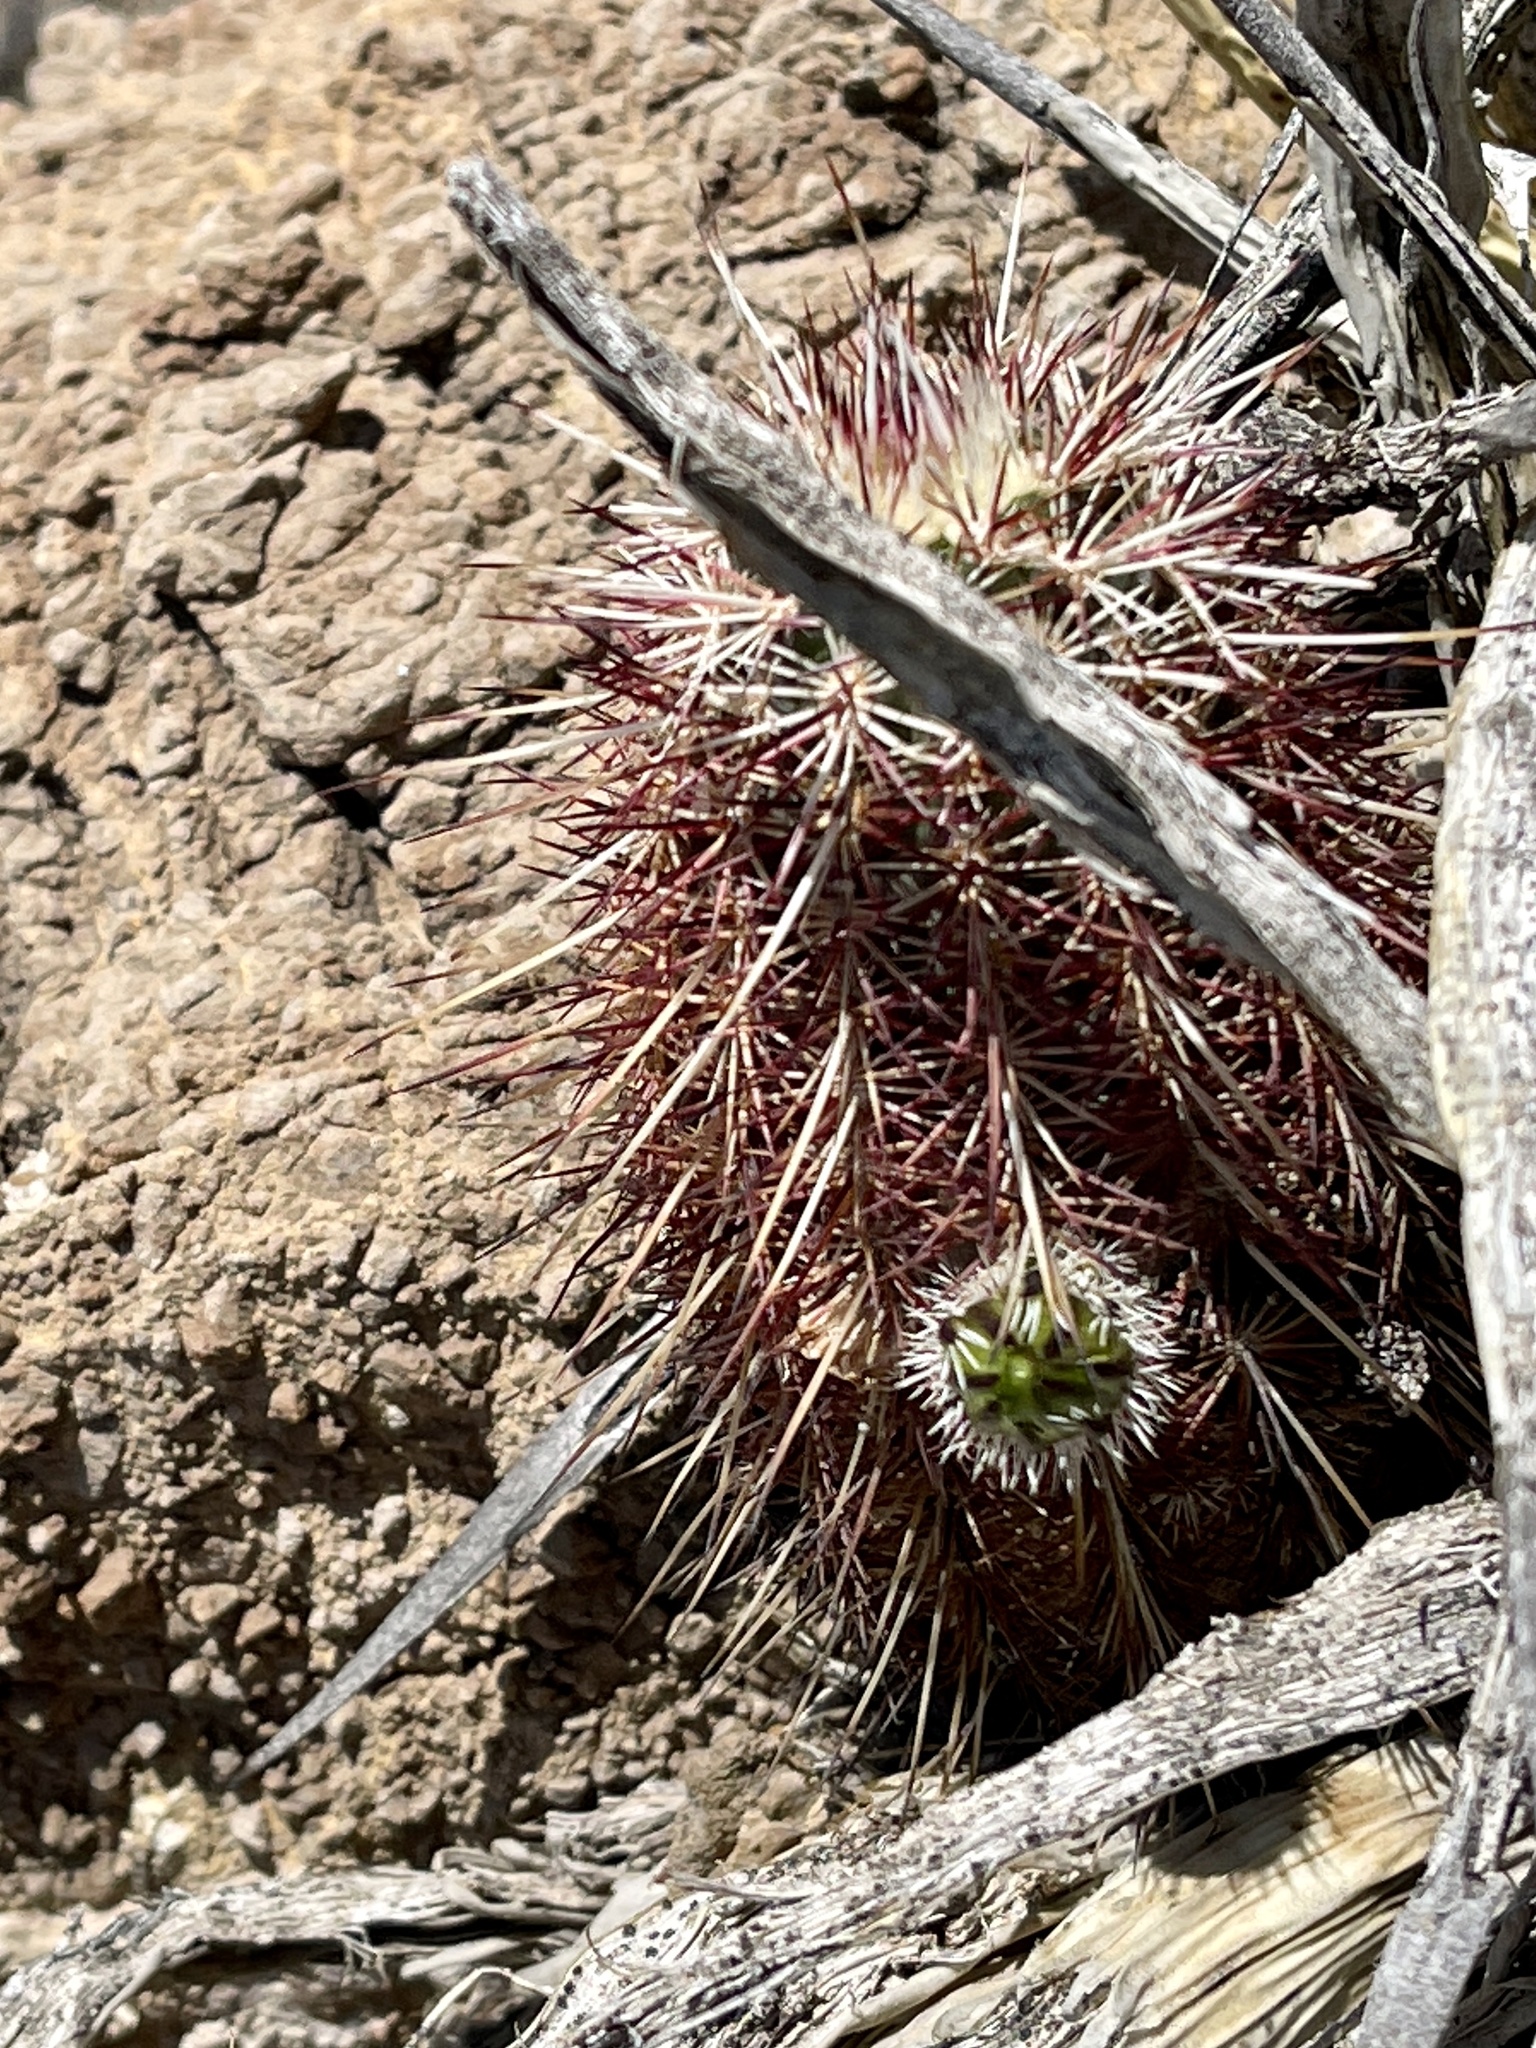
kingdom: Plantae
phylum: Tracheophyta
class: Magnoliopsida
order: Caryophyllales
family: Cactaceae
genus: Echinocereus
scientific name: Echinocereus viridiflorus
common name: Nylon hedgehog cactus
